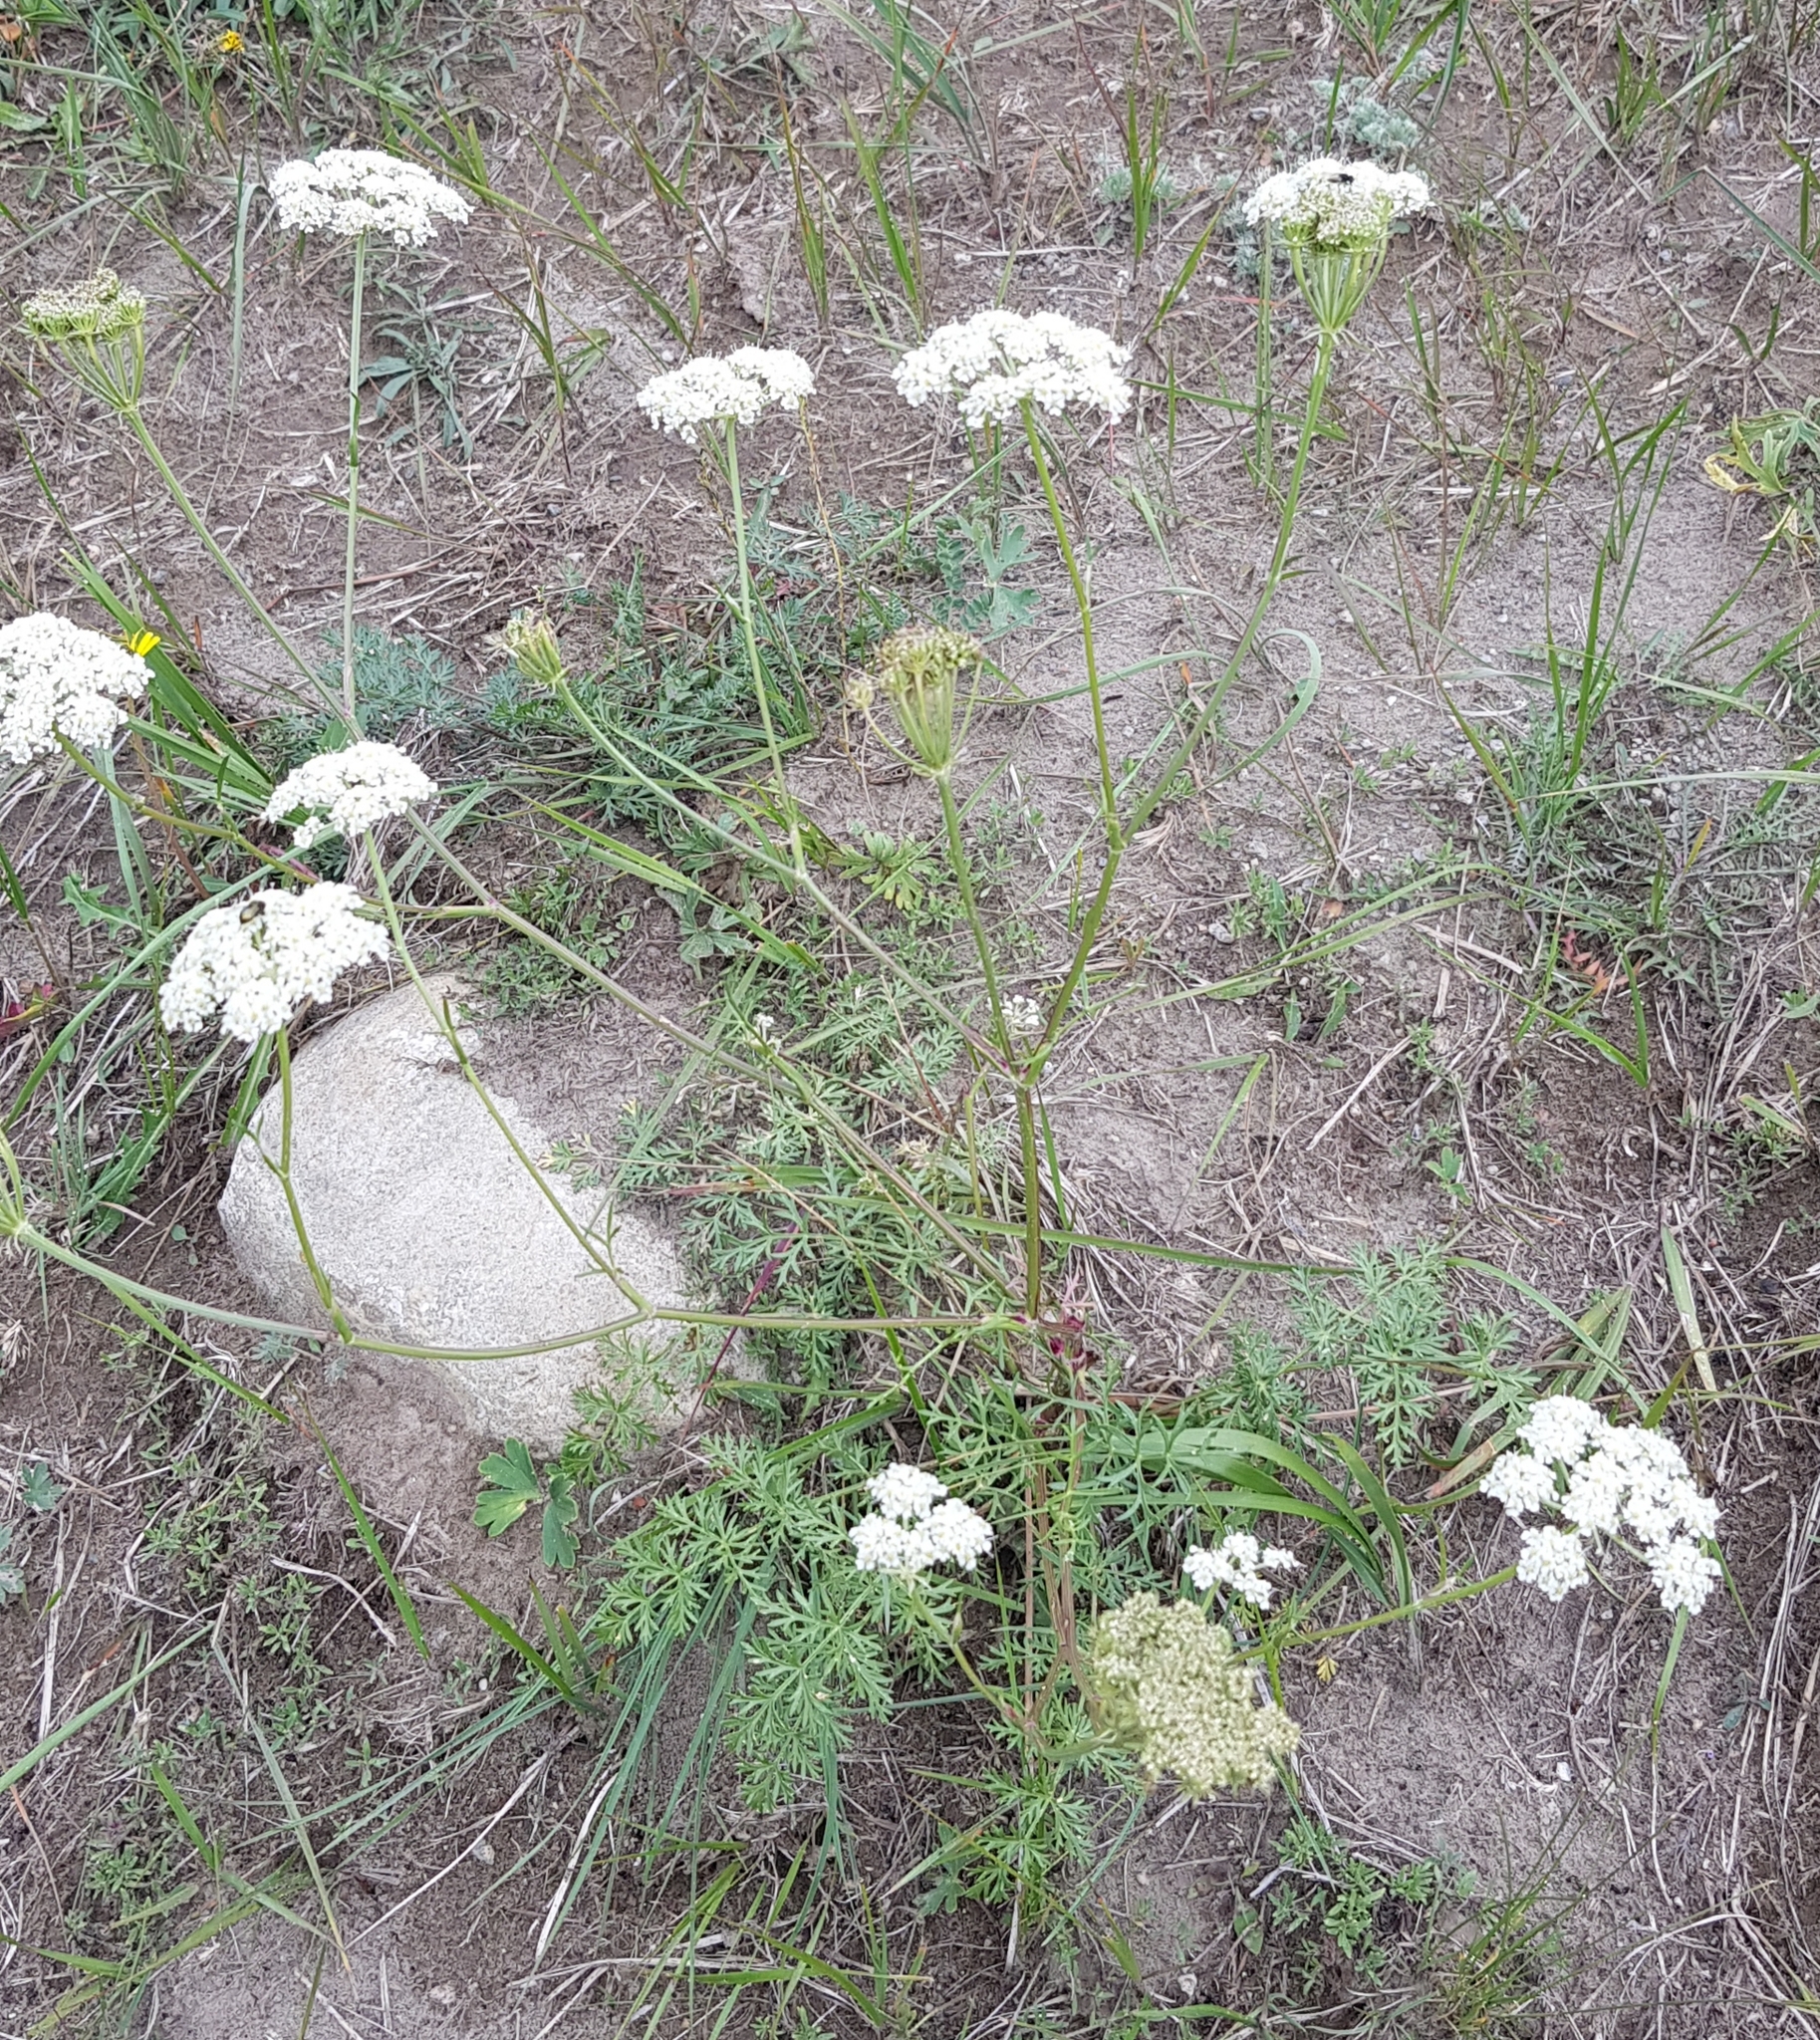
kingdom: Plantae
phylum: Tracheophyta
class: Magnoliopsida
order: Apiales
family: Apiaceae
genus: Kitagawia
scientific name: Kitagawia baicalensis
